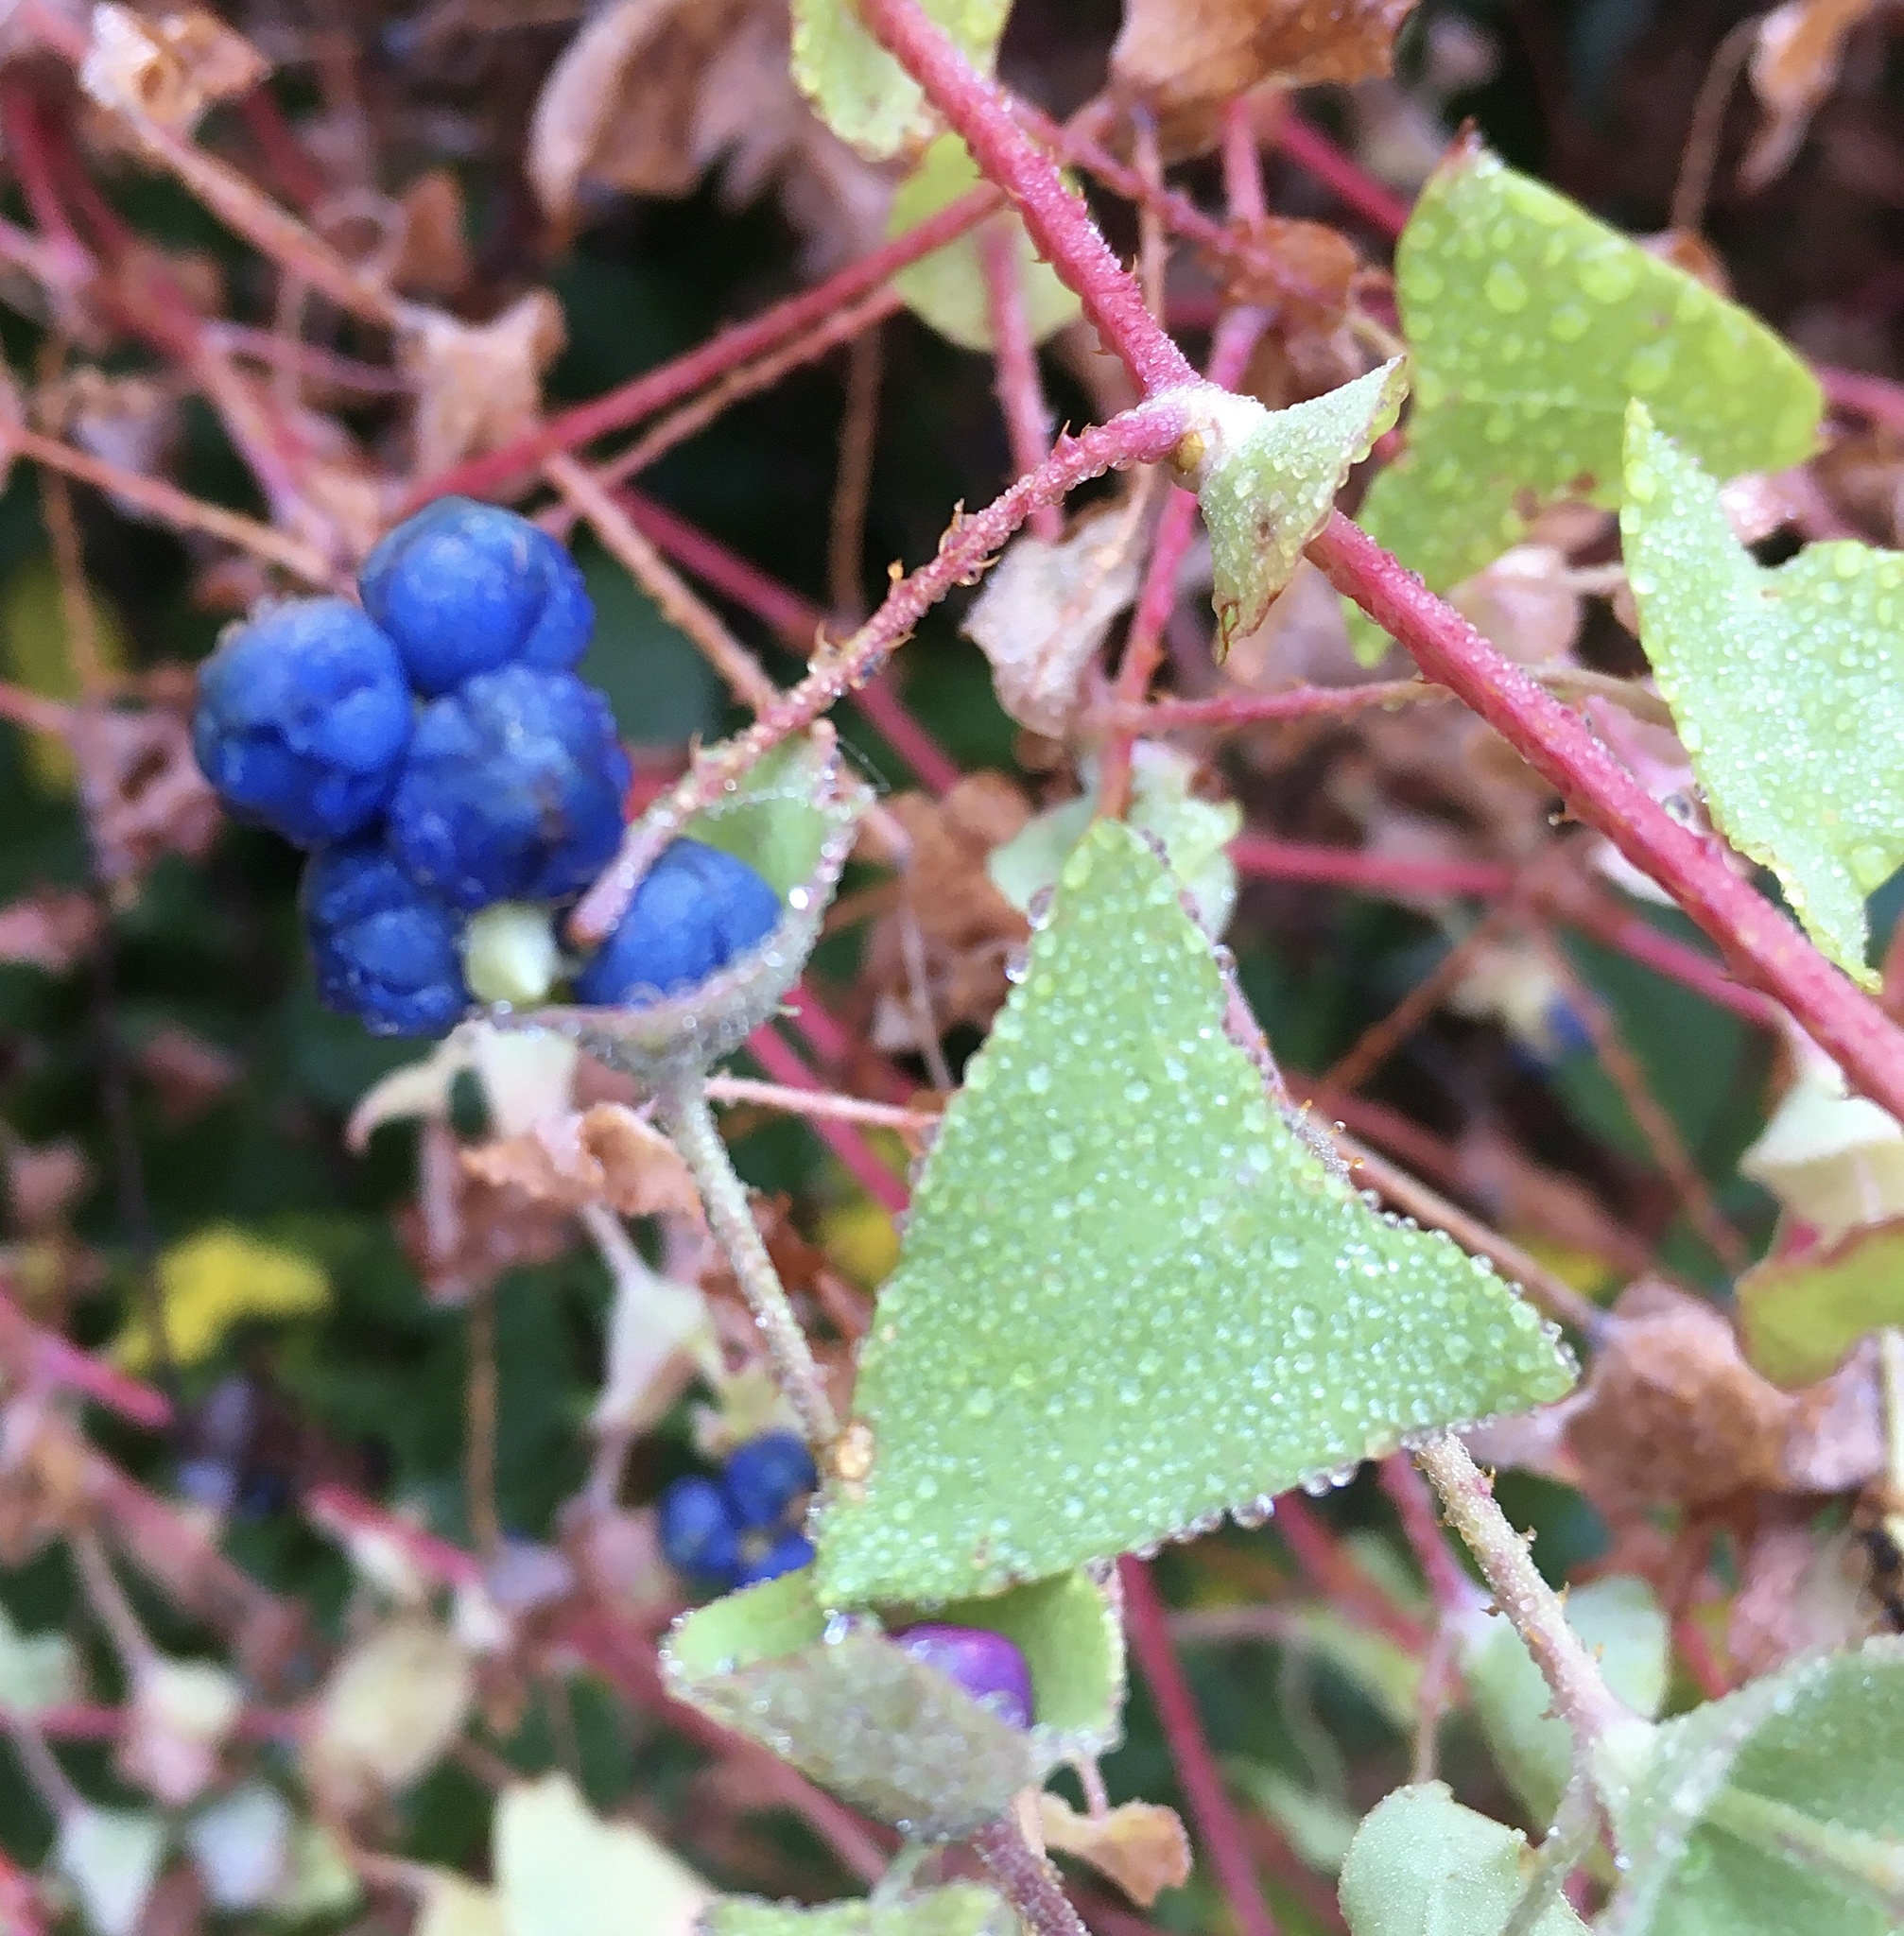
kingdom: Plantae
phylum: Tracheophyta
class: Magnoliopsida
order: Caryophyllales
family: Polygonaceae
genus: Persicaria
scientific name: Persicaria perfoliata
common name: Asiatic tearthumb
